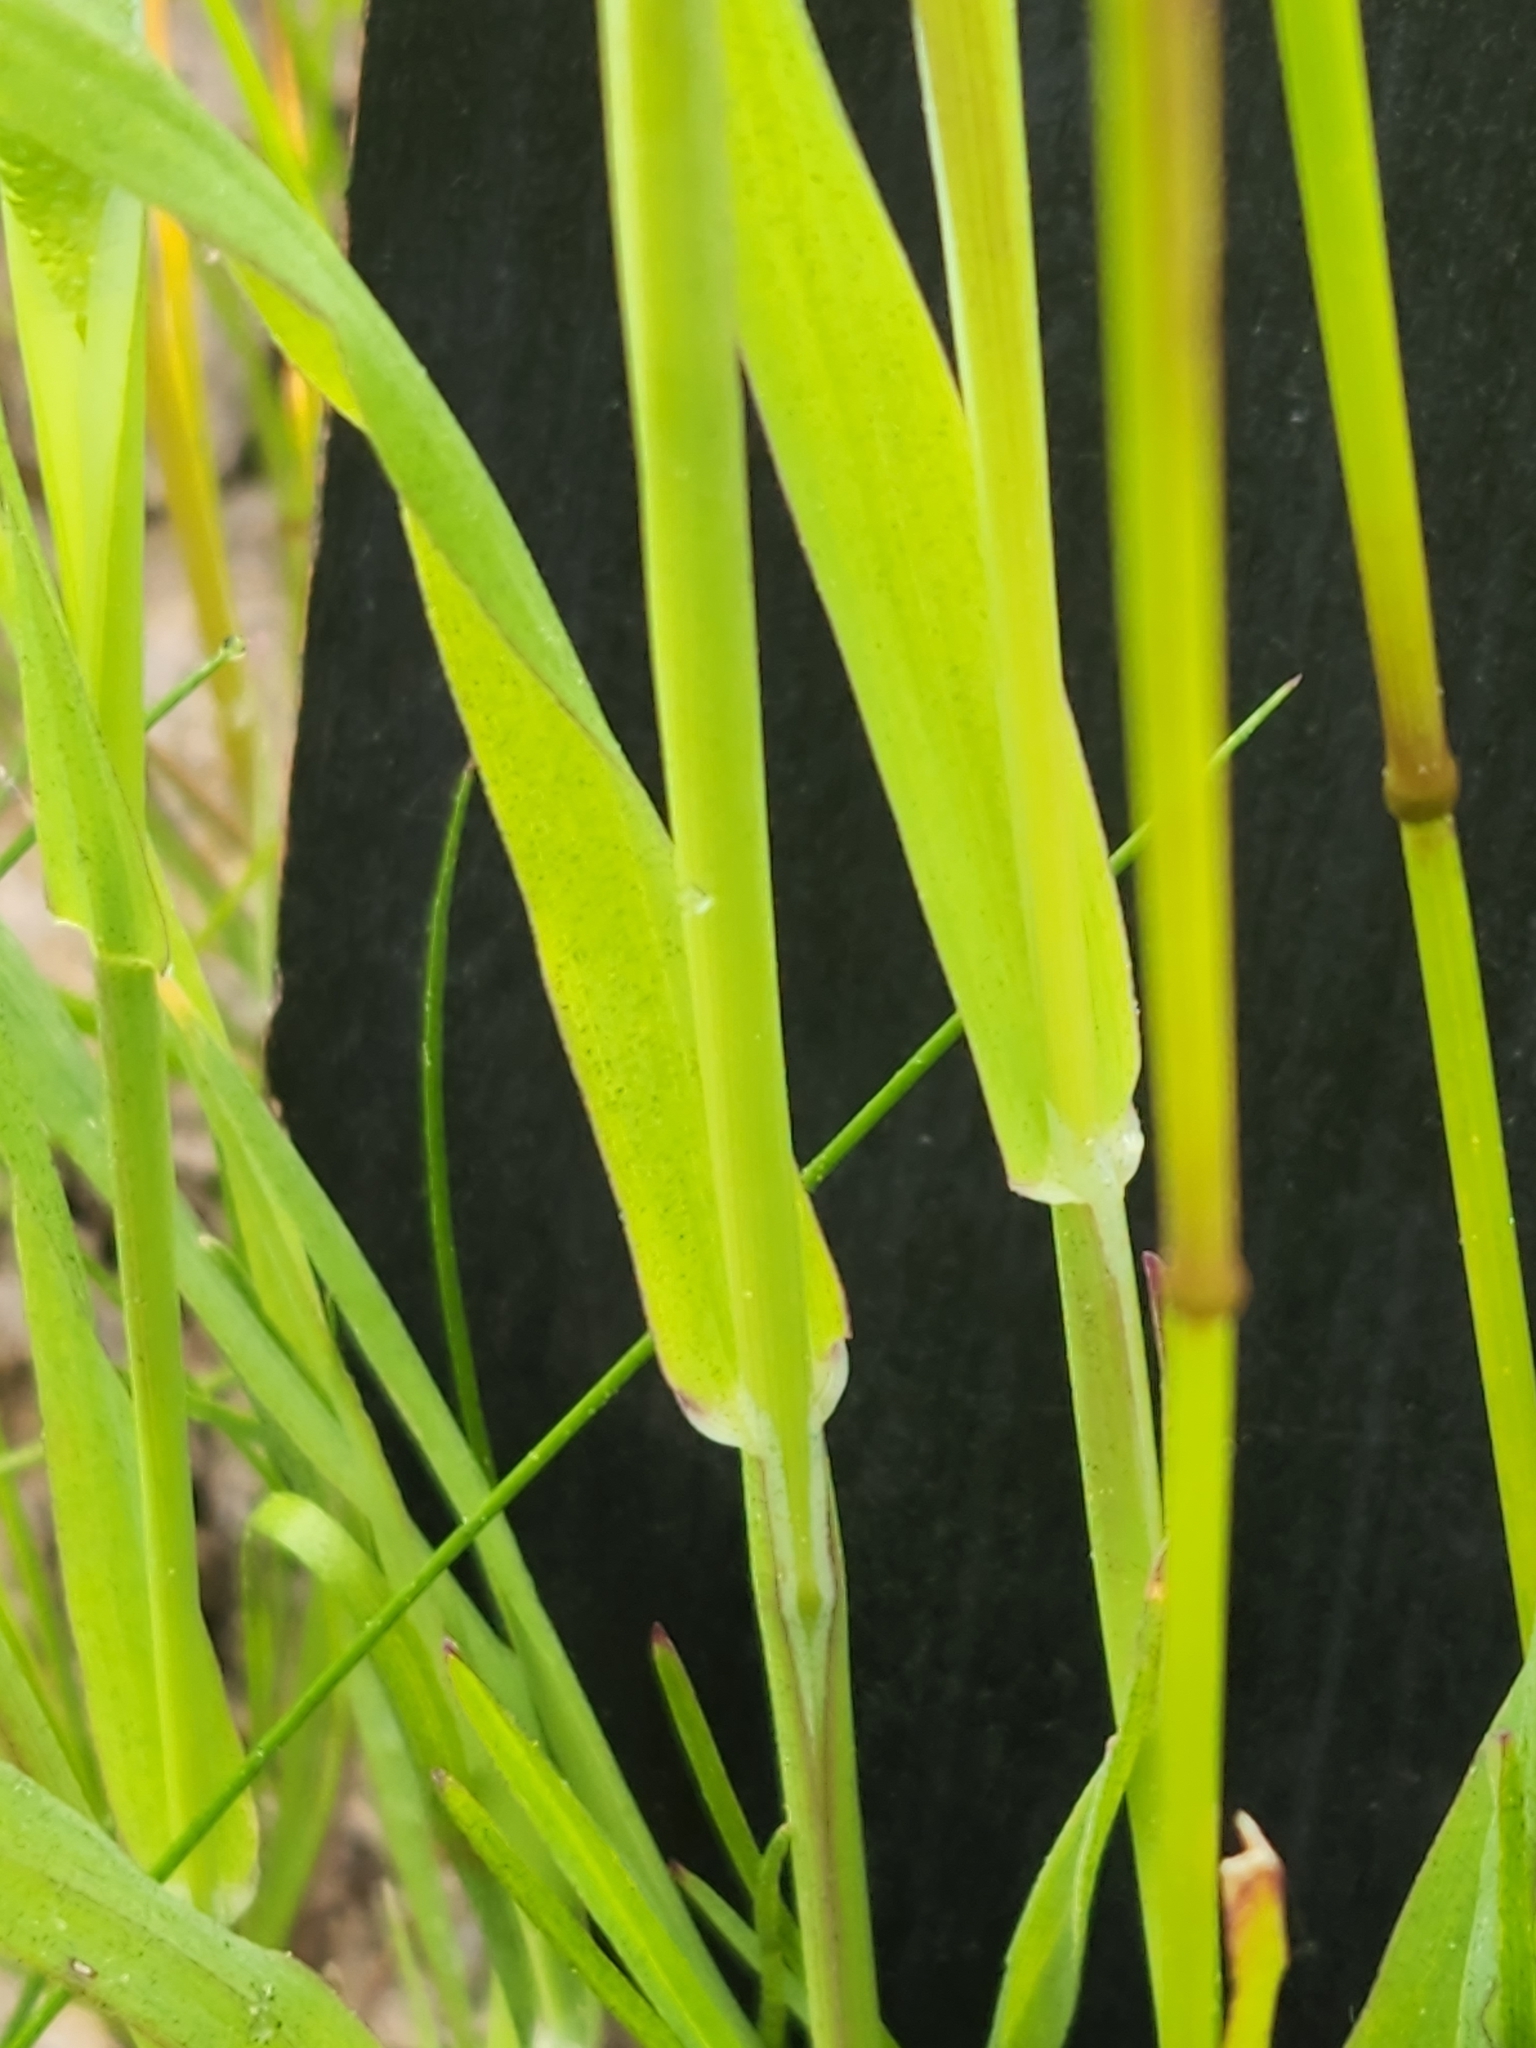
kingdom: Plantae
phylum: Tracheophyta
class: Liliopsida
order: Poales
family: Poaceae
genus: Phleum
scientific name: Phleum pratense
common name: Timothy grass
